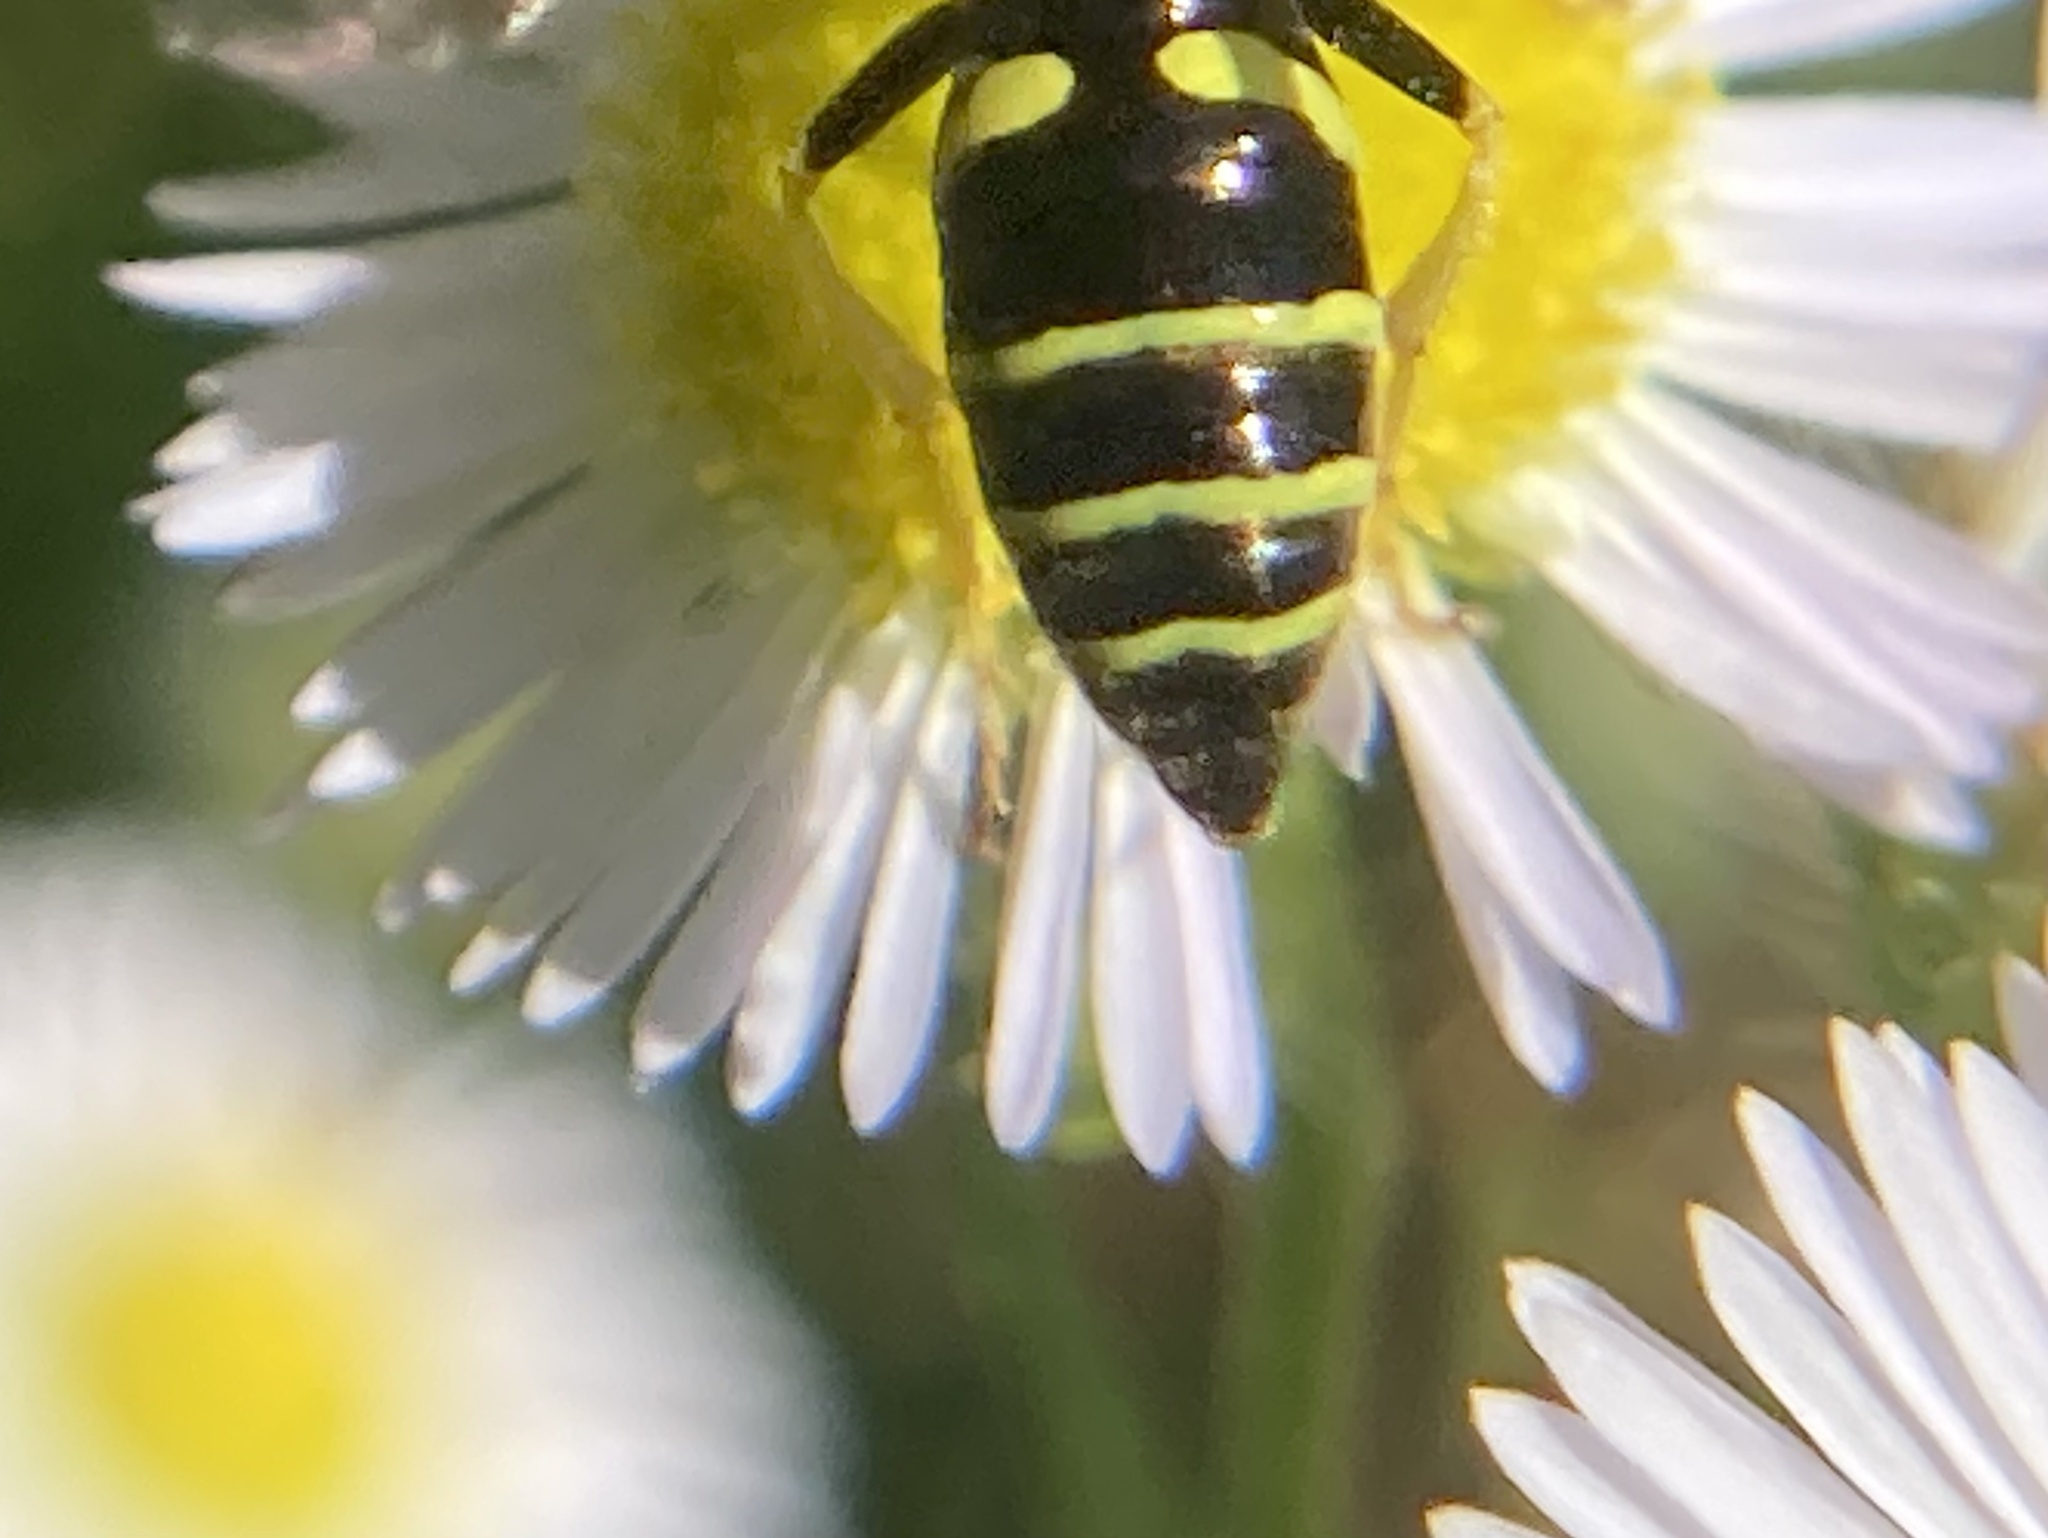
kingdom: Animalia
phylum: Arthropoda
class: Insecta
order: Hymenoptera
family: Crabronidae
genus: Philanthus
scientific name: Philanthus lepidus
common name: Pleasant beewolf
